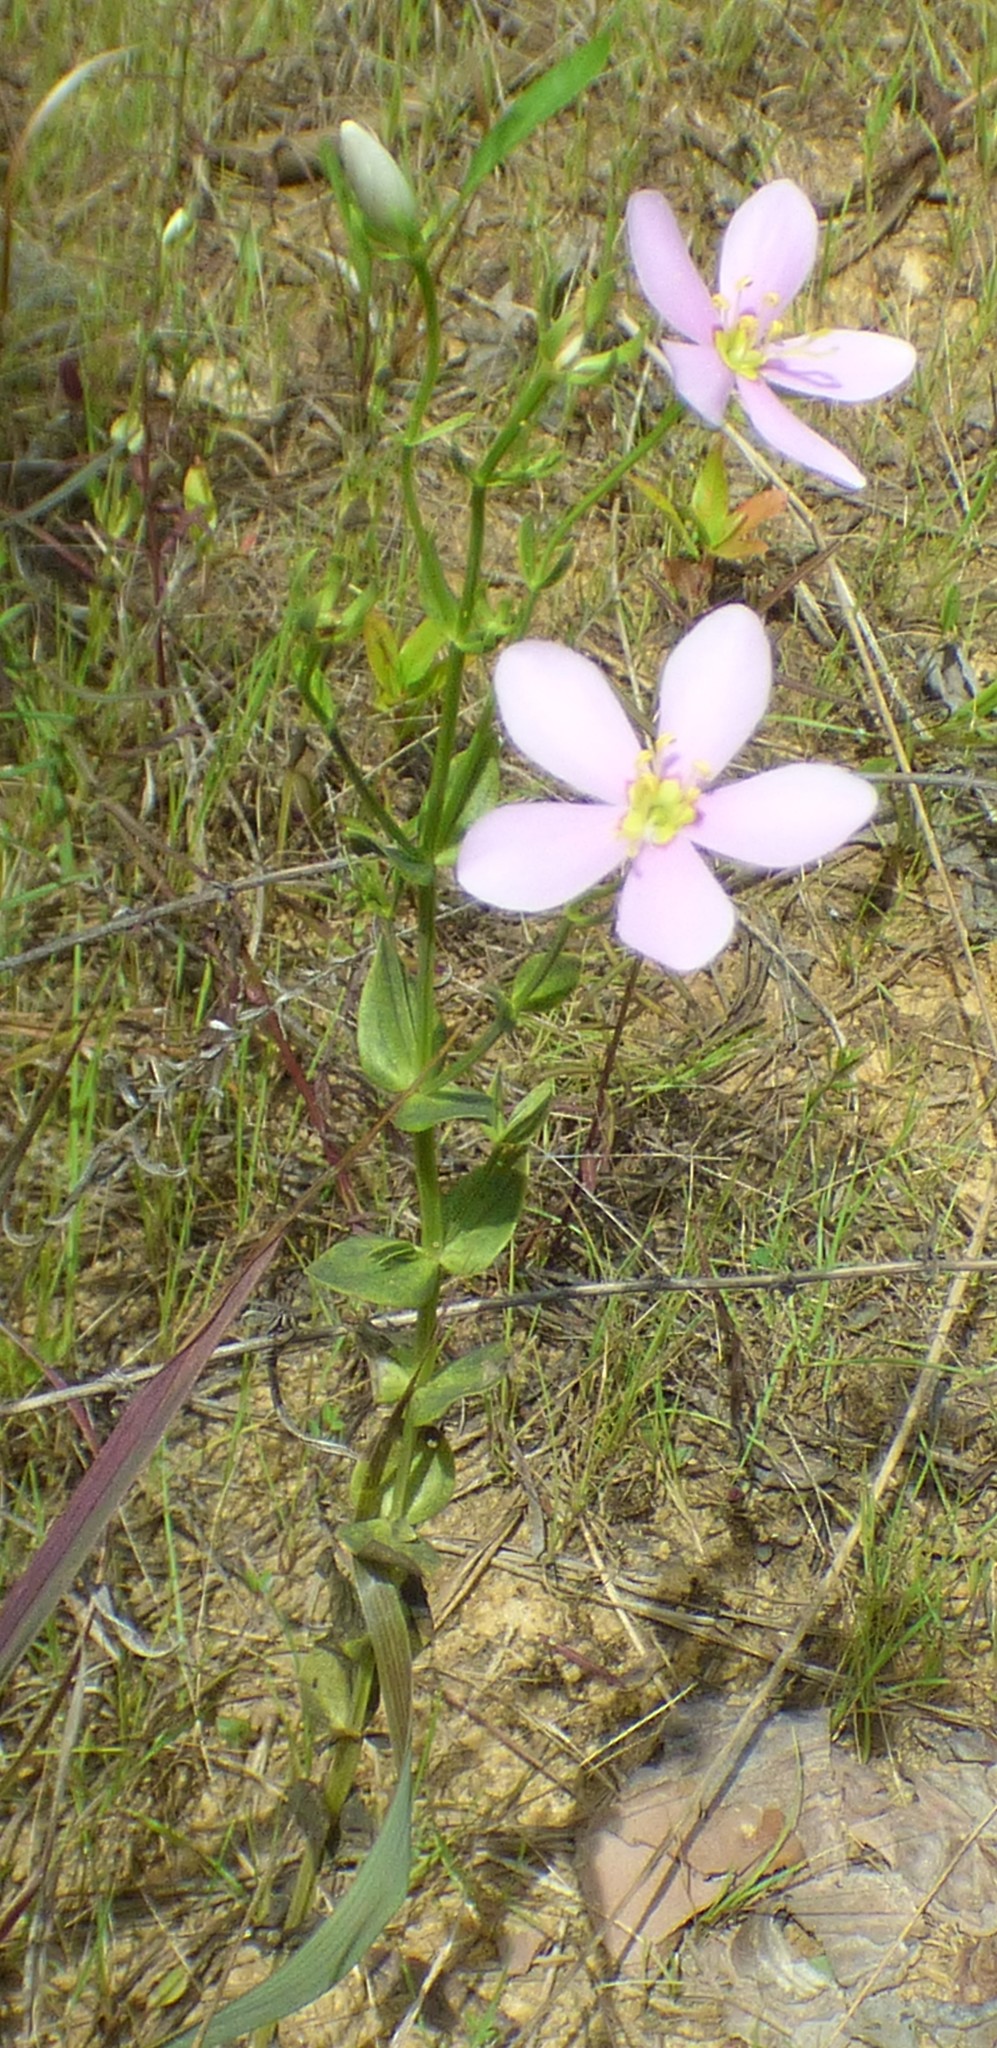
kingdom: Plantae
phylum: Tracheophyta
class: Magnoliopsida
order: Gentianales
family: Gentianaceae
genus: Sabatia
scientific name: Sabatia angularis
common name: Rose-pink
